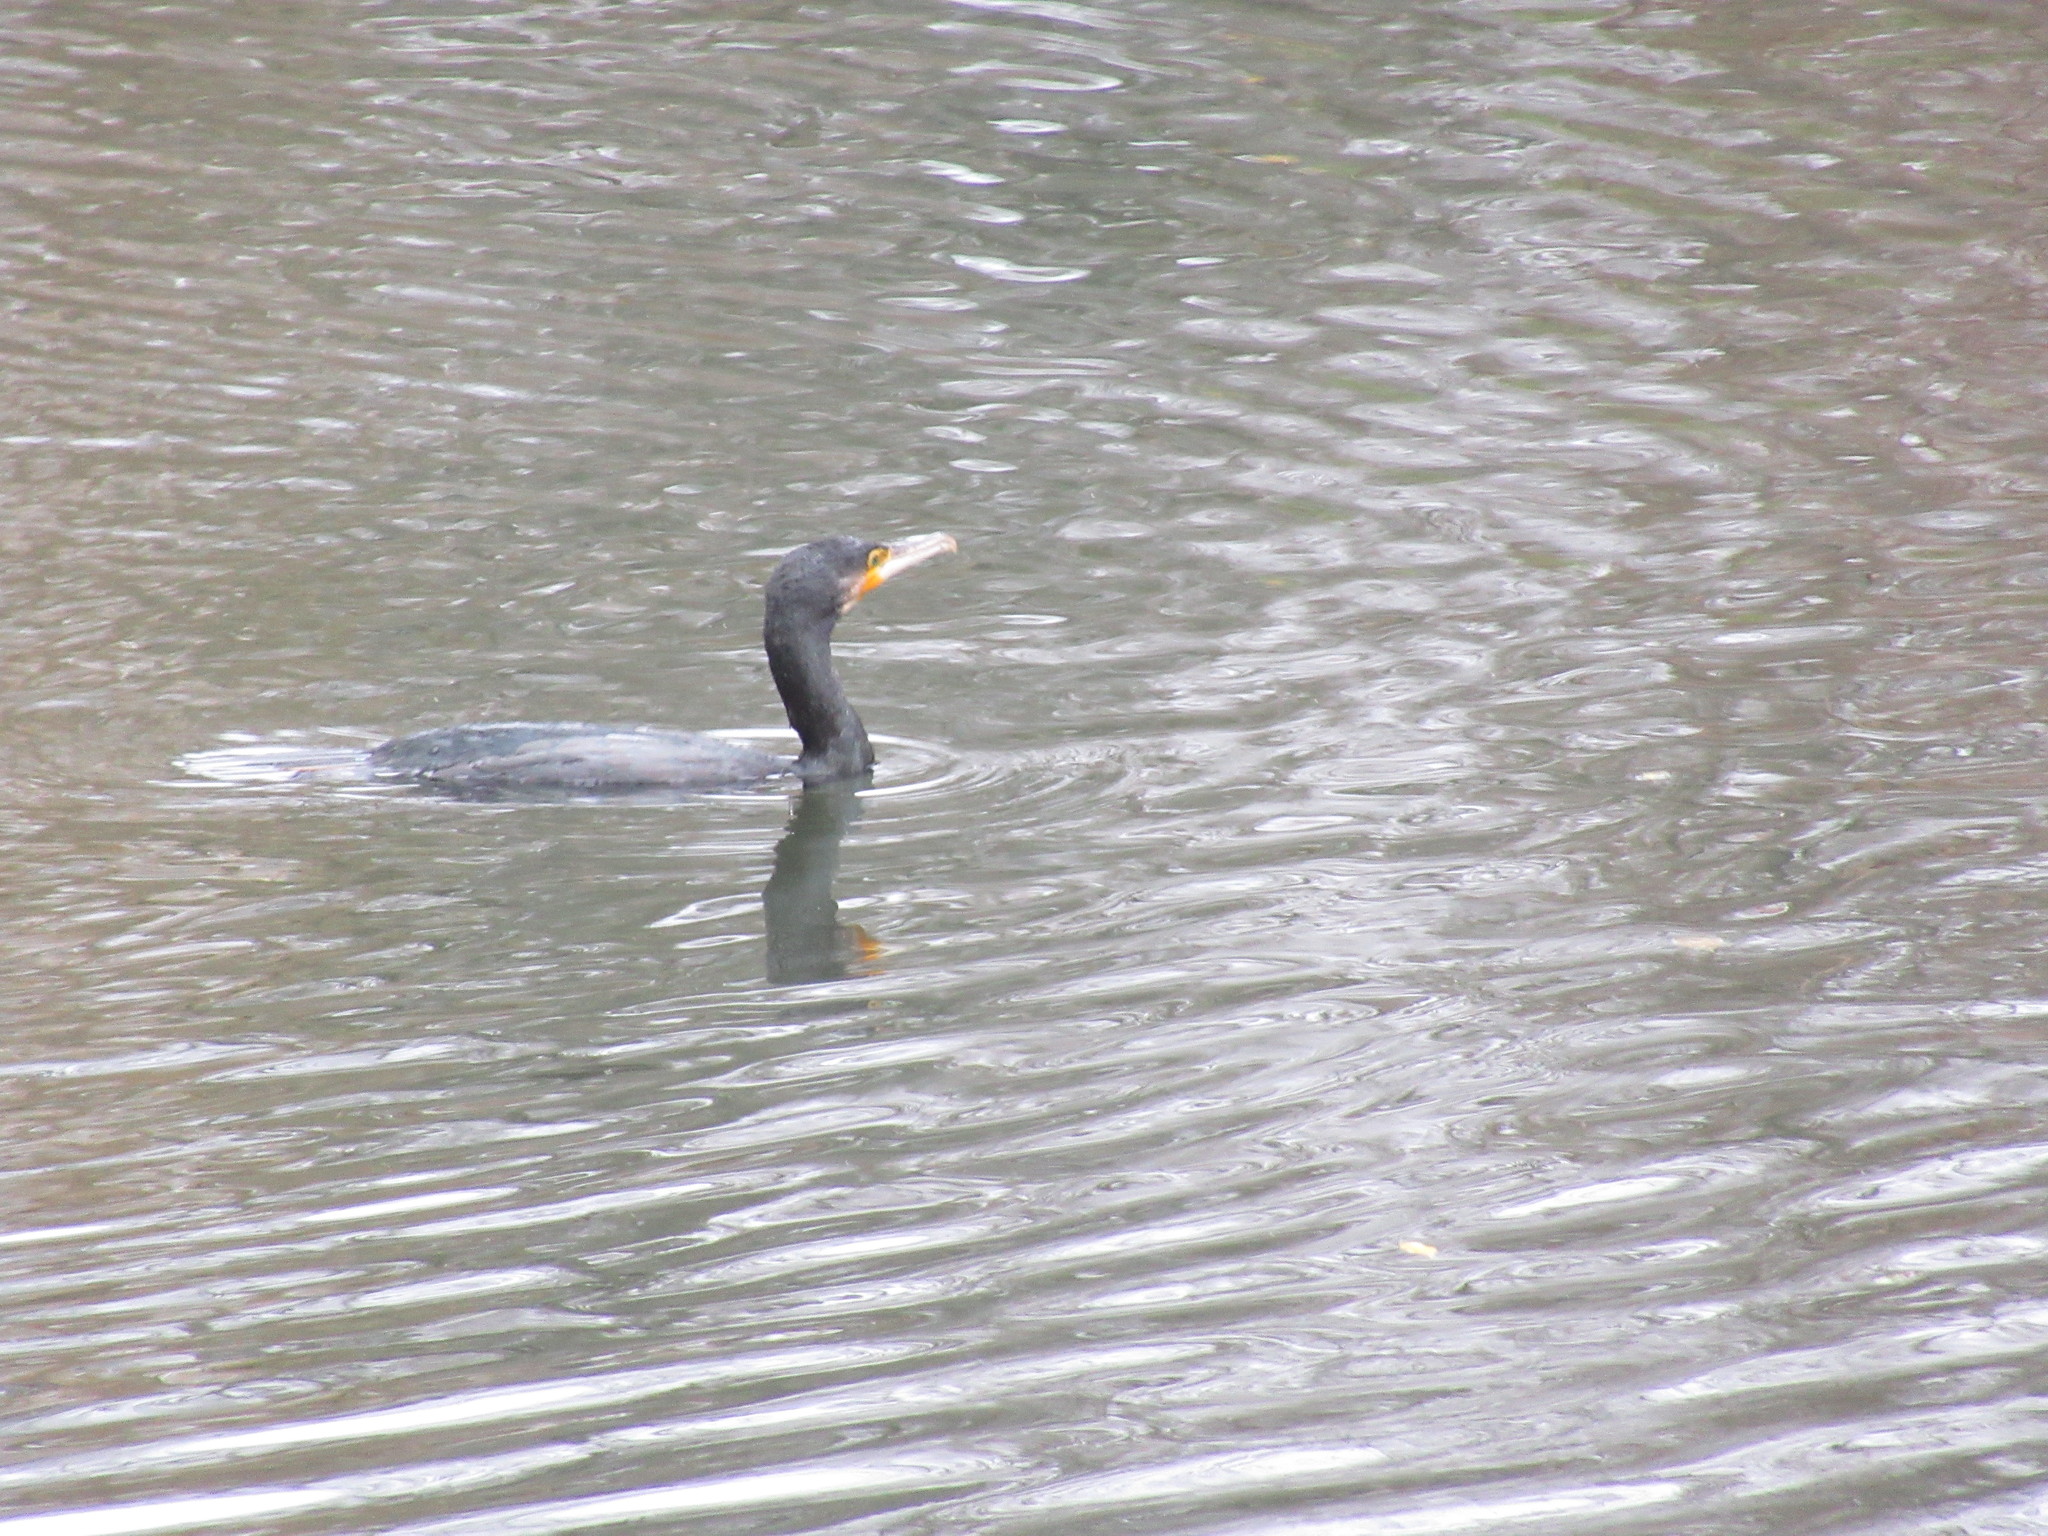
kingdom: Animalia
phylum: Chordata
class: Aves
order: Suliformes
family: Phalacrocoracidae
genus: Phalacrocorax
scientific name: Phalacrocorax carbo
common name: Great cormorant
